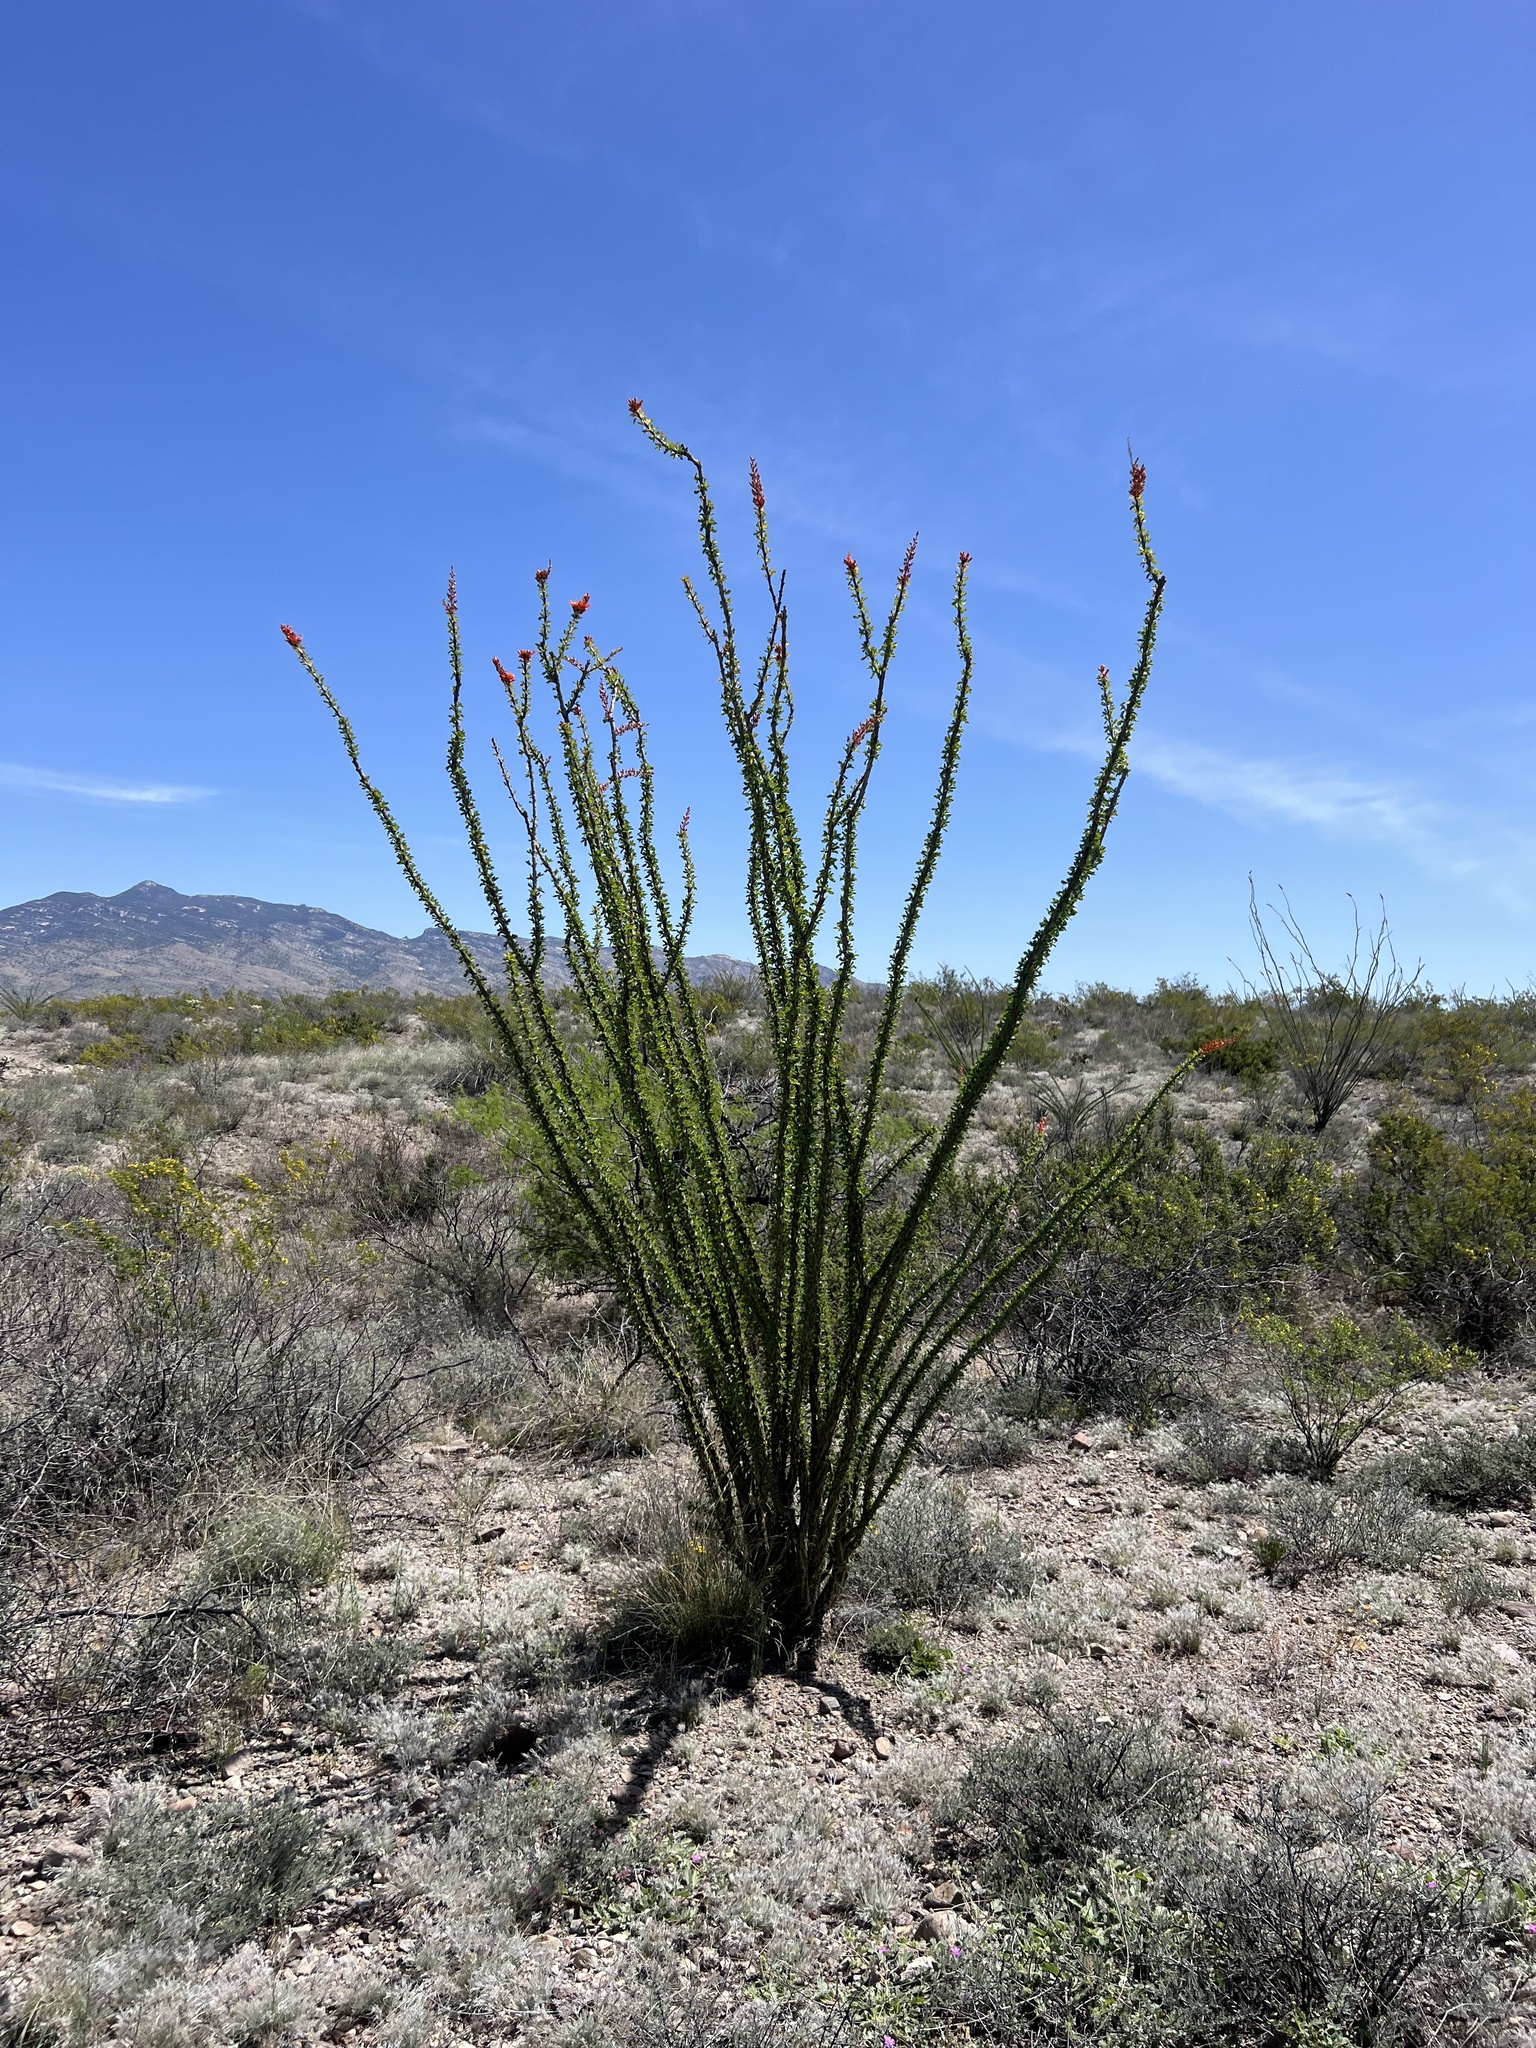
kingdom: Plantae
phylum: Tracheophyta
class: Magnoliopsida
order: Ericales
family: Fouquieriaceae
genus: Fouquieria
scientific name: Fouquieria splendens
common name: Vine-cactus
